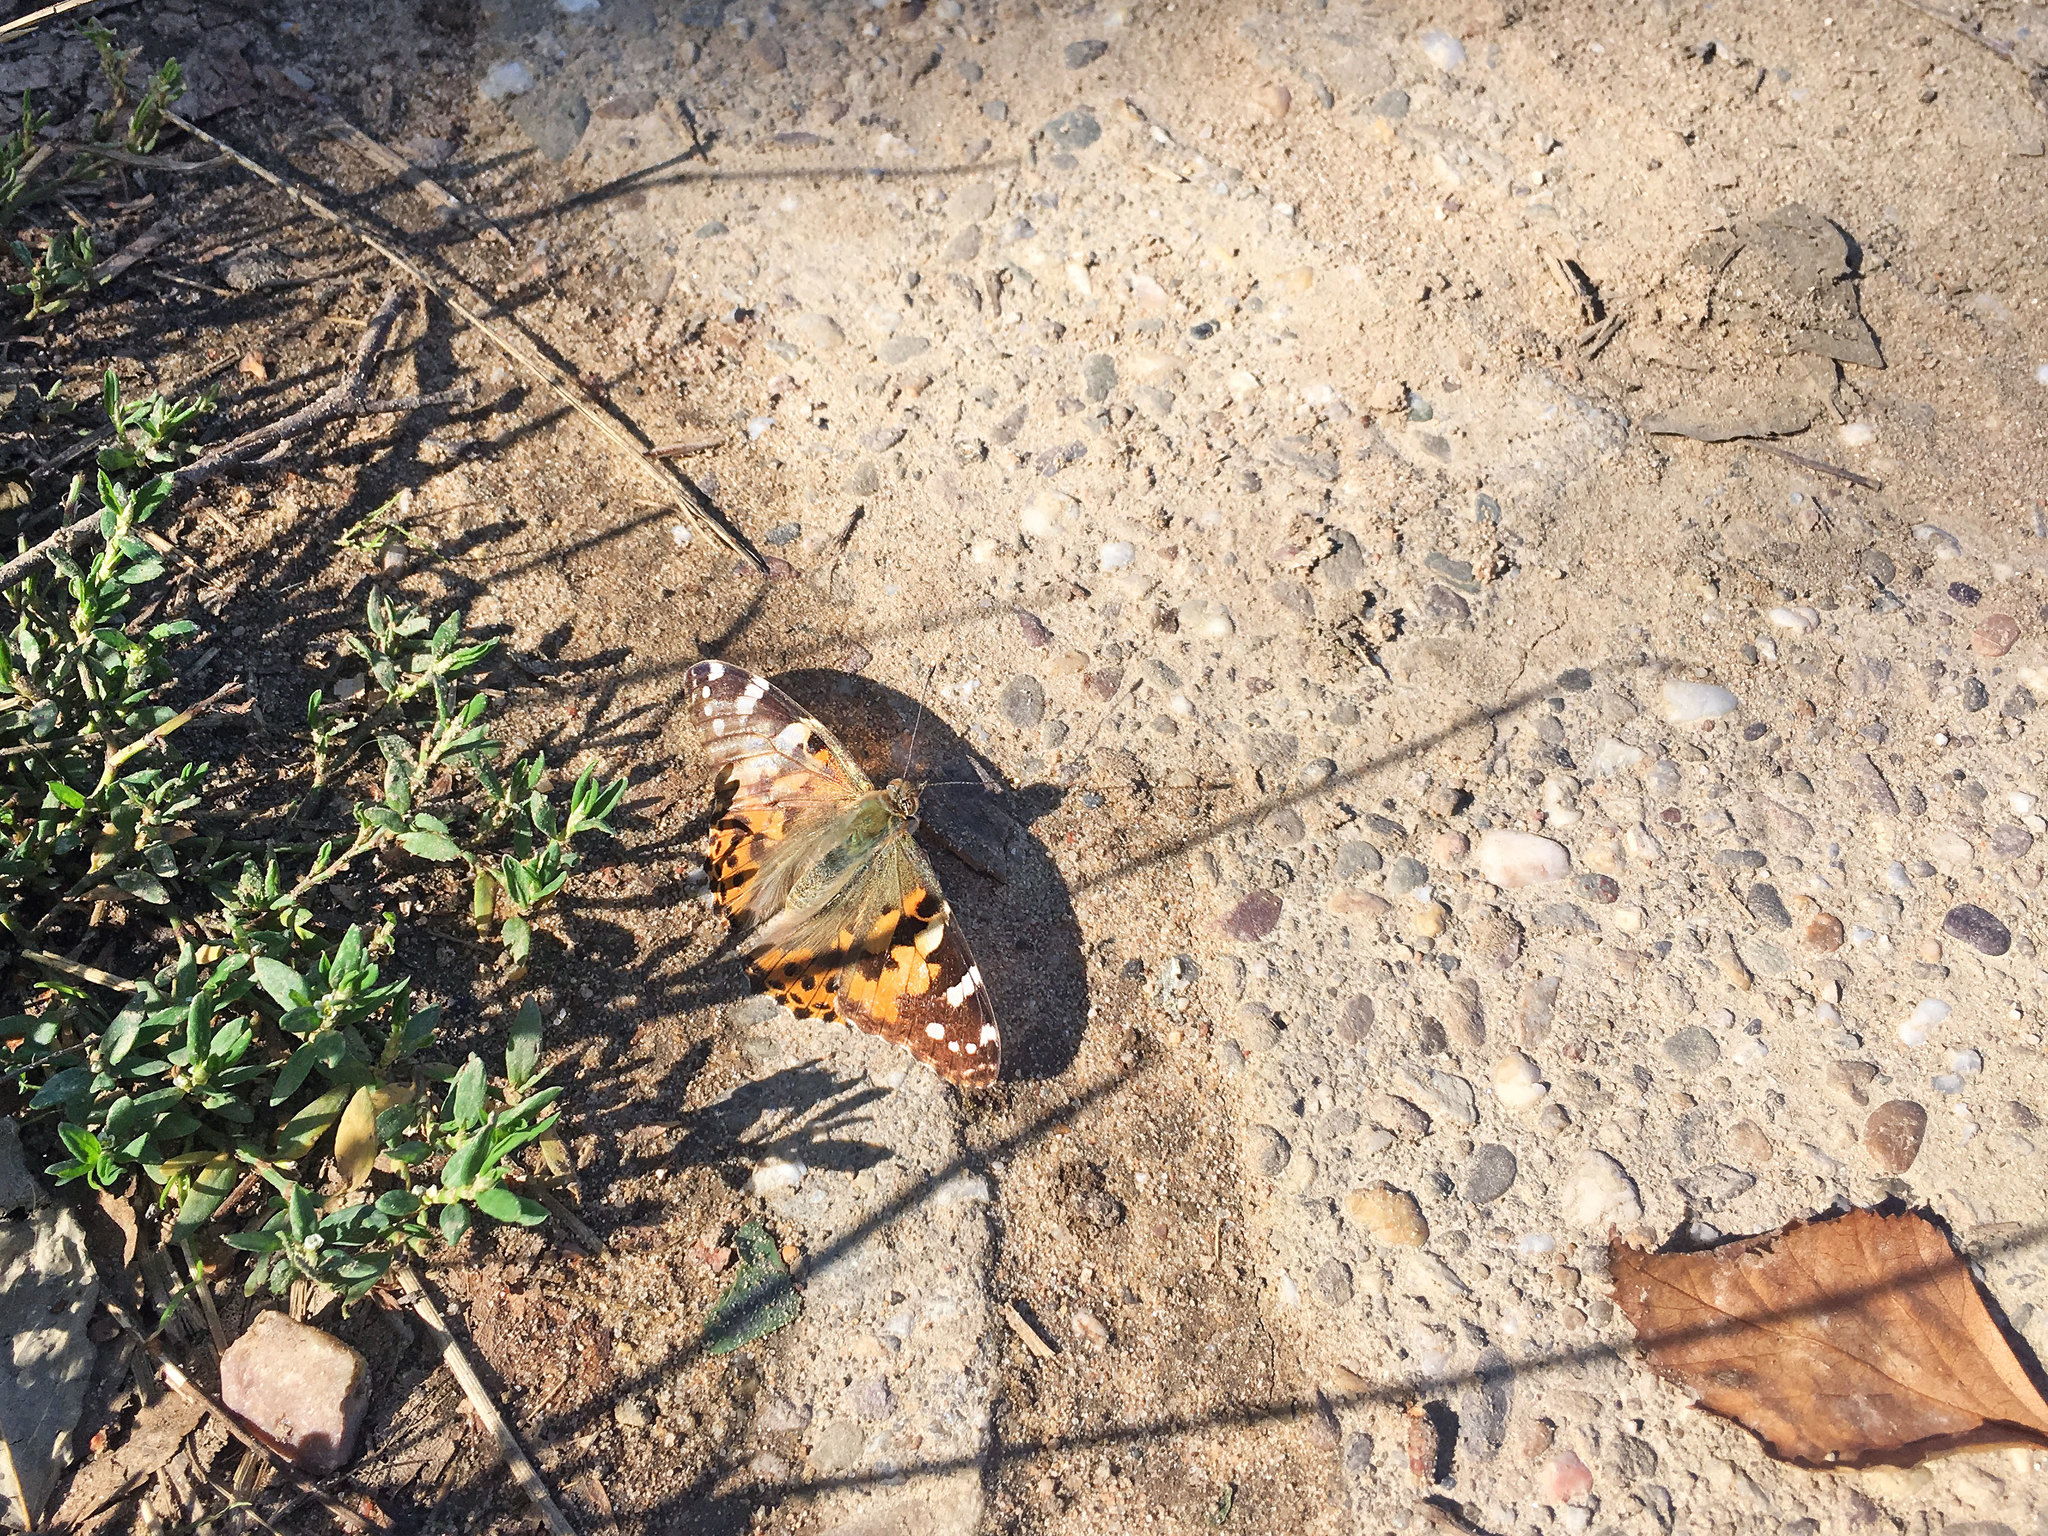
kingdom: Animalia
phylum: Arthropoda
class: Insecta
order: Lepidoptera
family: Nymphalidae
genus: Vanessa
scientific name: Vanessa cardui
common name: Painted lady
